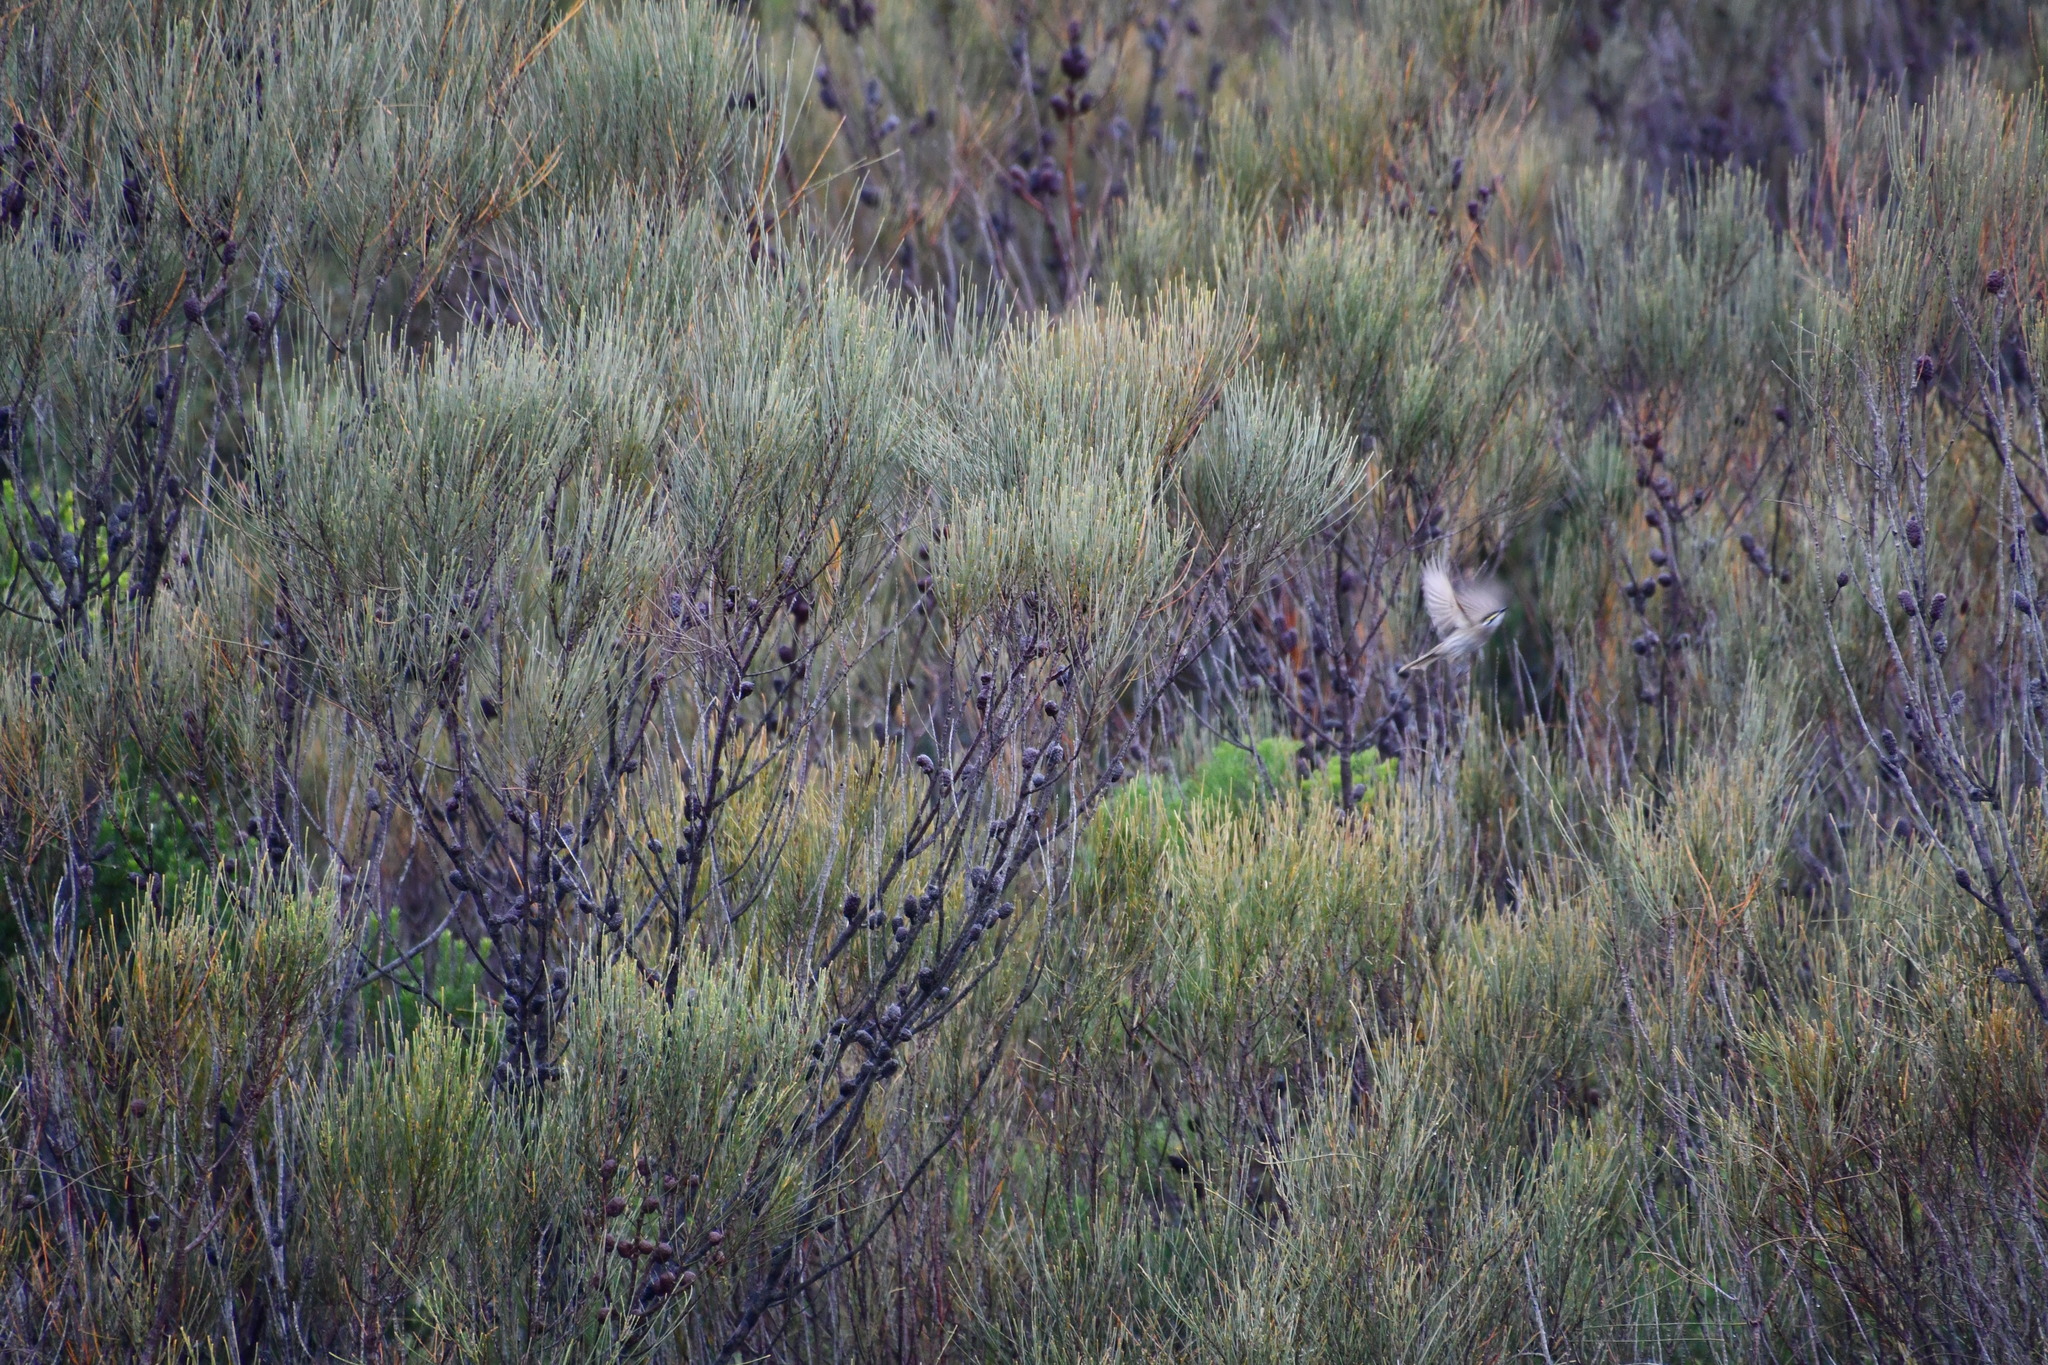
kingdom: Animalia
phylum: Chordata
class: Aves
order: Passeriformes
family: Meliphagidae
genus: Caligavis
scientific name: Caligavis chrysops
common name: Yellow-faced honeyeater
